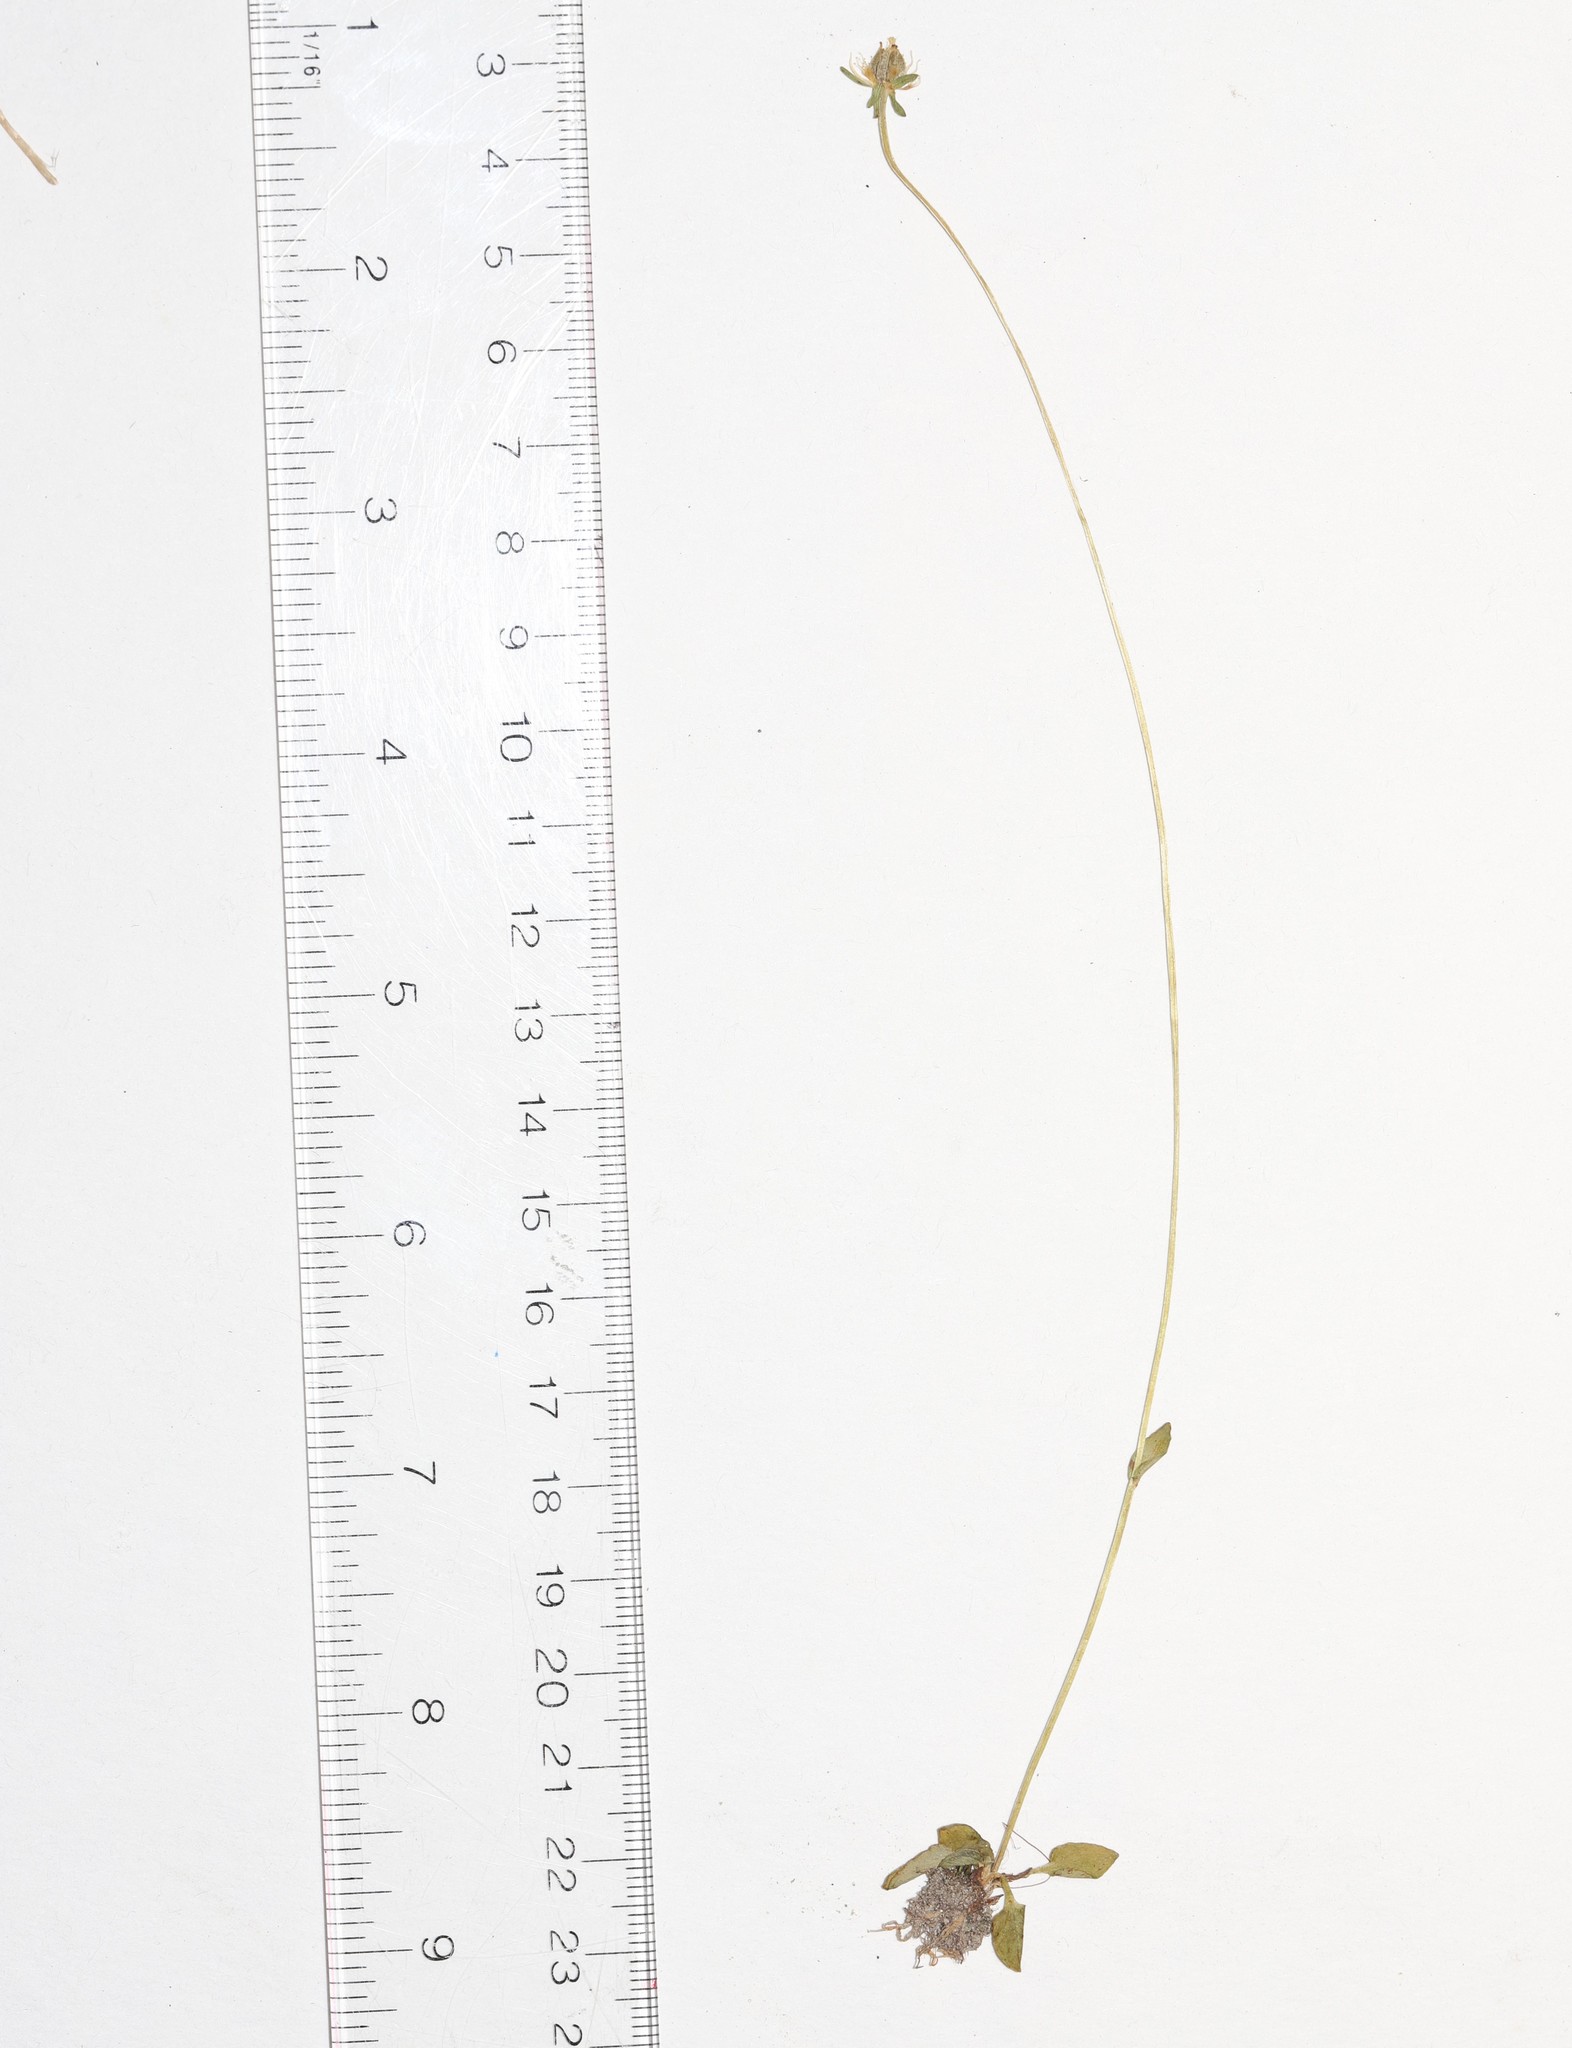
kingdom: Plantae
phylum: Tracheophyta
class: Magnoliopsida
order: Celastrales
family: Parnassiaceae
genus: Parnassia
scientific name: Parnassia parviflora
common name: Small-flowered grass-of-parnassus
